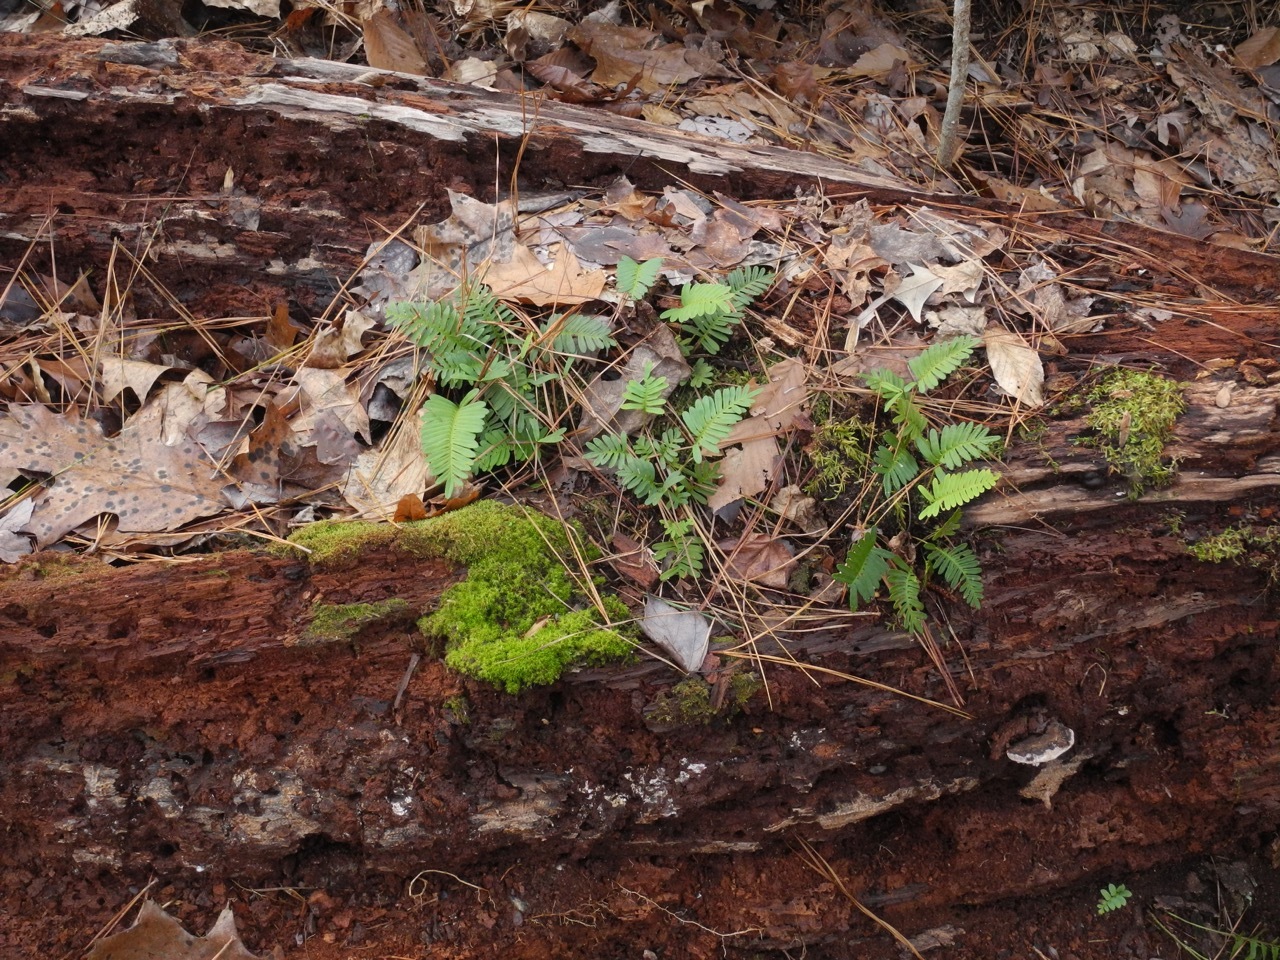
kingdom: Plantae
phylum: Tracheophyta
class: Polypodiopsida
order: Polypodiales
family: Polypodiaceae
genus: Pleopeltis
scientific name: Pleopeltis michauxiana
